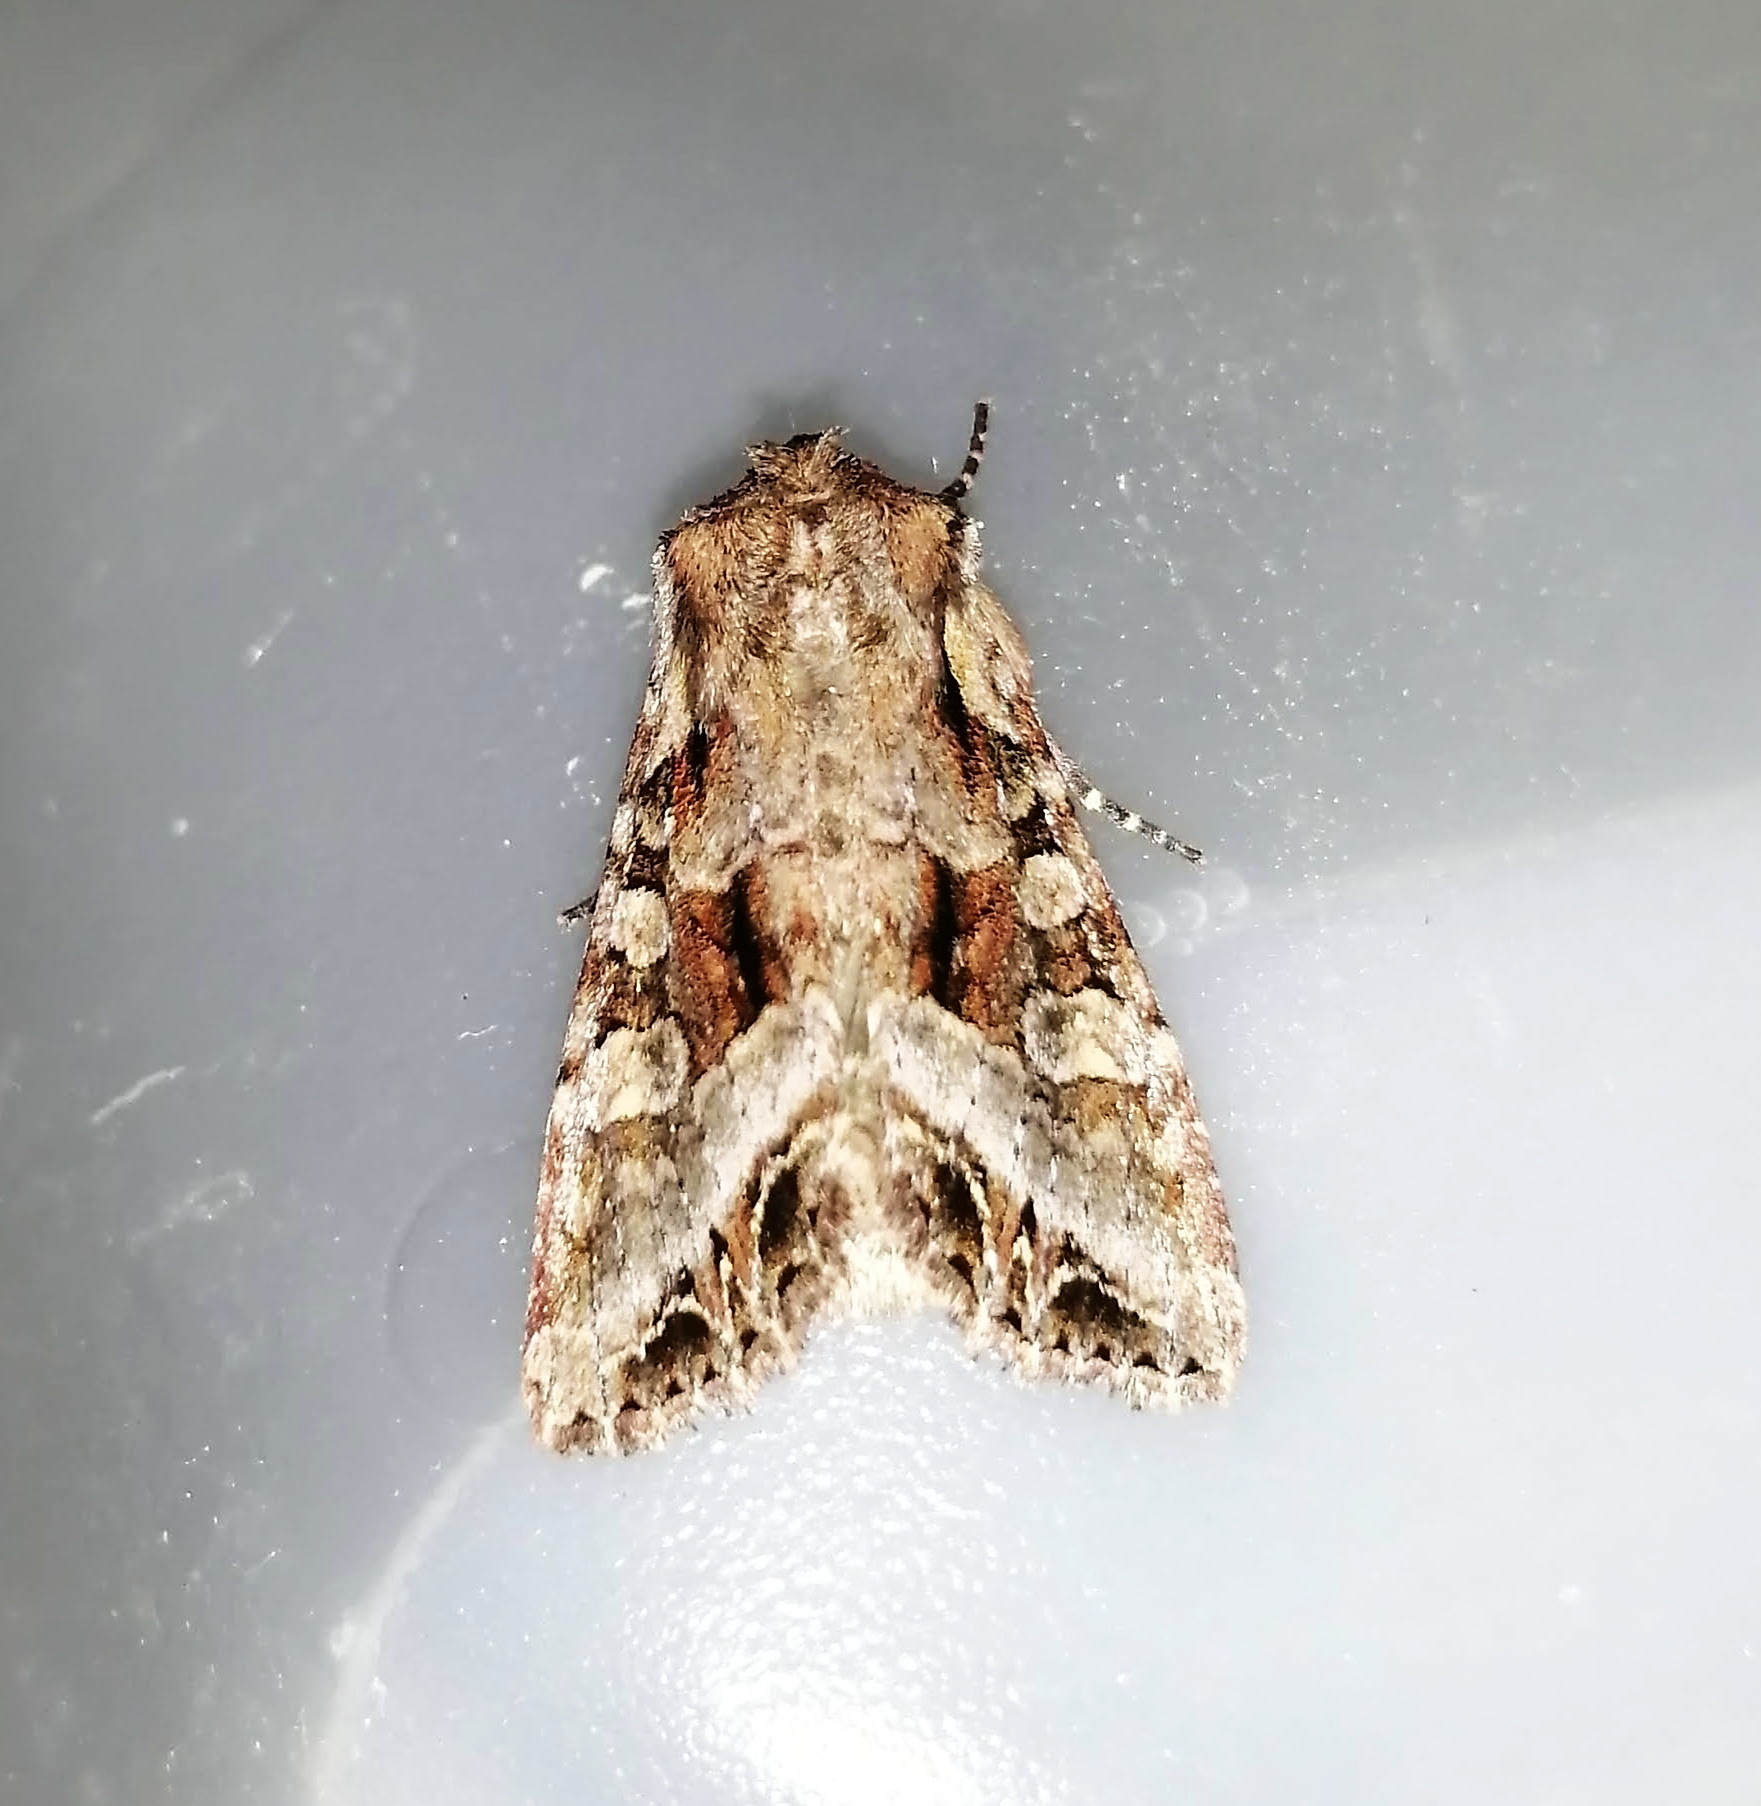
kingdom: Animalia
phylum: Arthropoda
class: Insecta
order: Lepidoptera
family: Noctuidae
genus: Lacanobia
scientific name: Lacanobia grandis
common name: Grand arches moth
